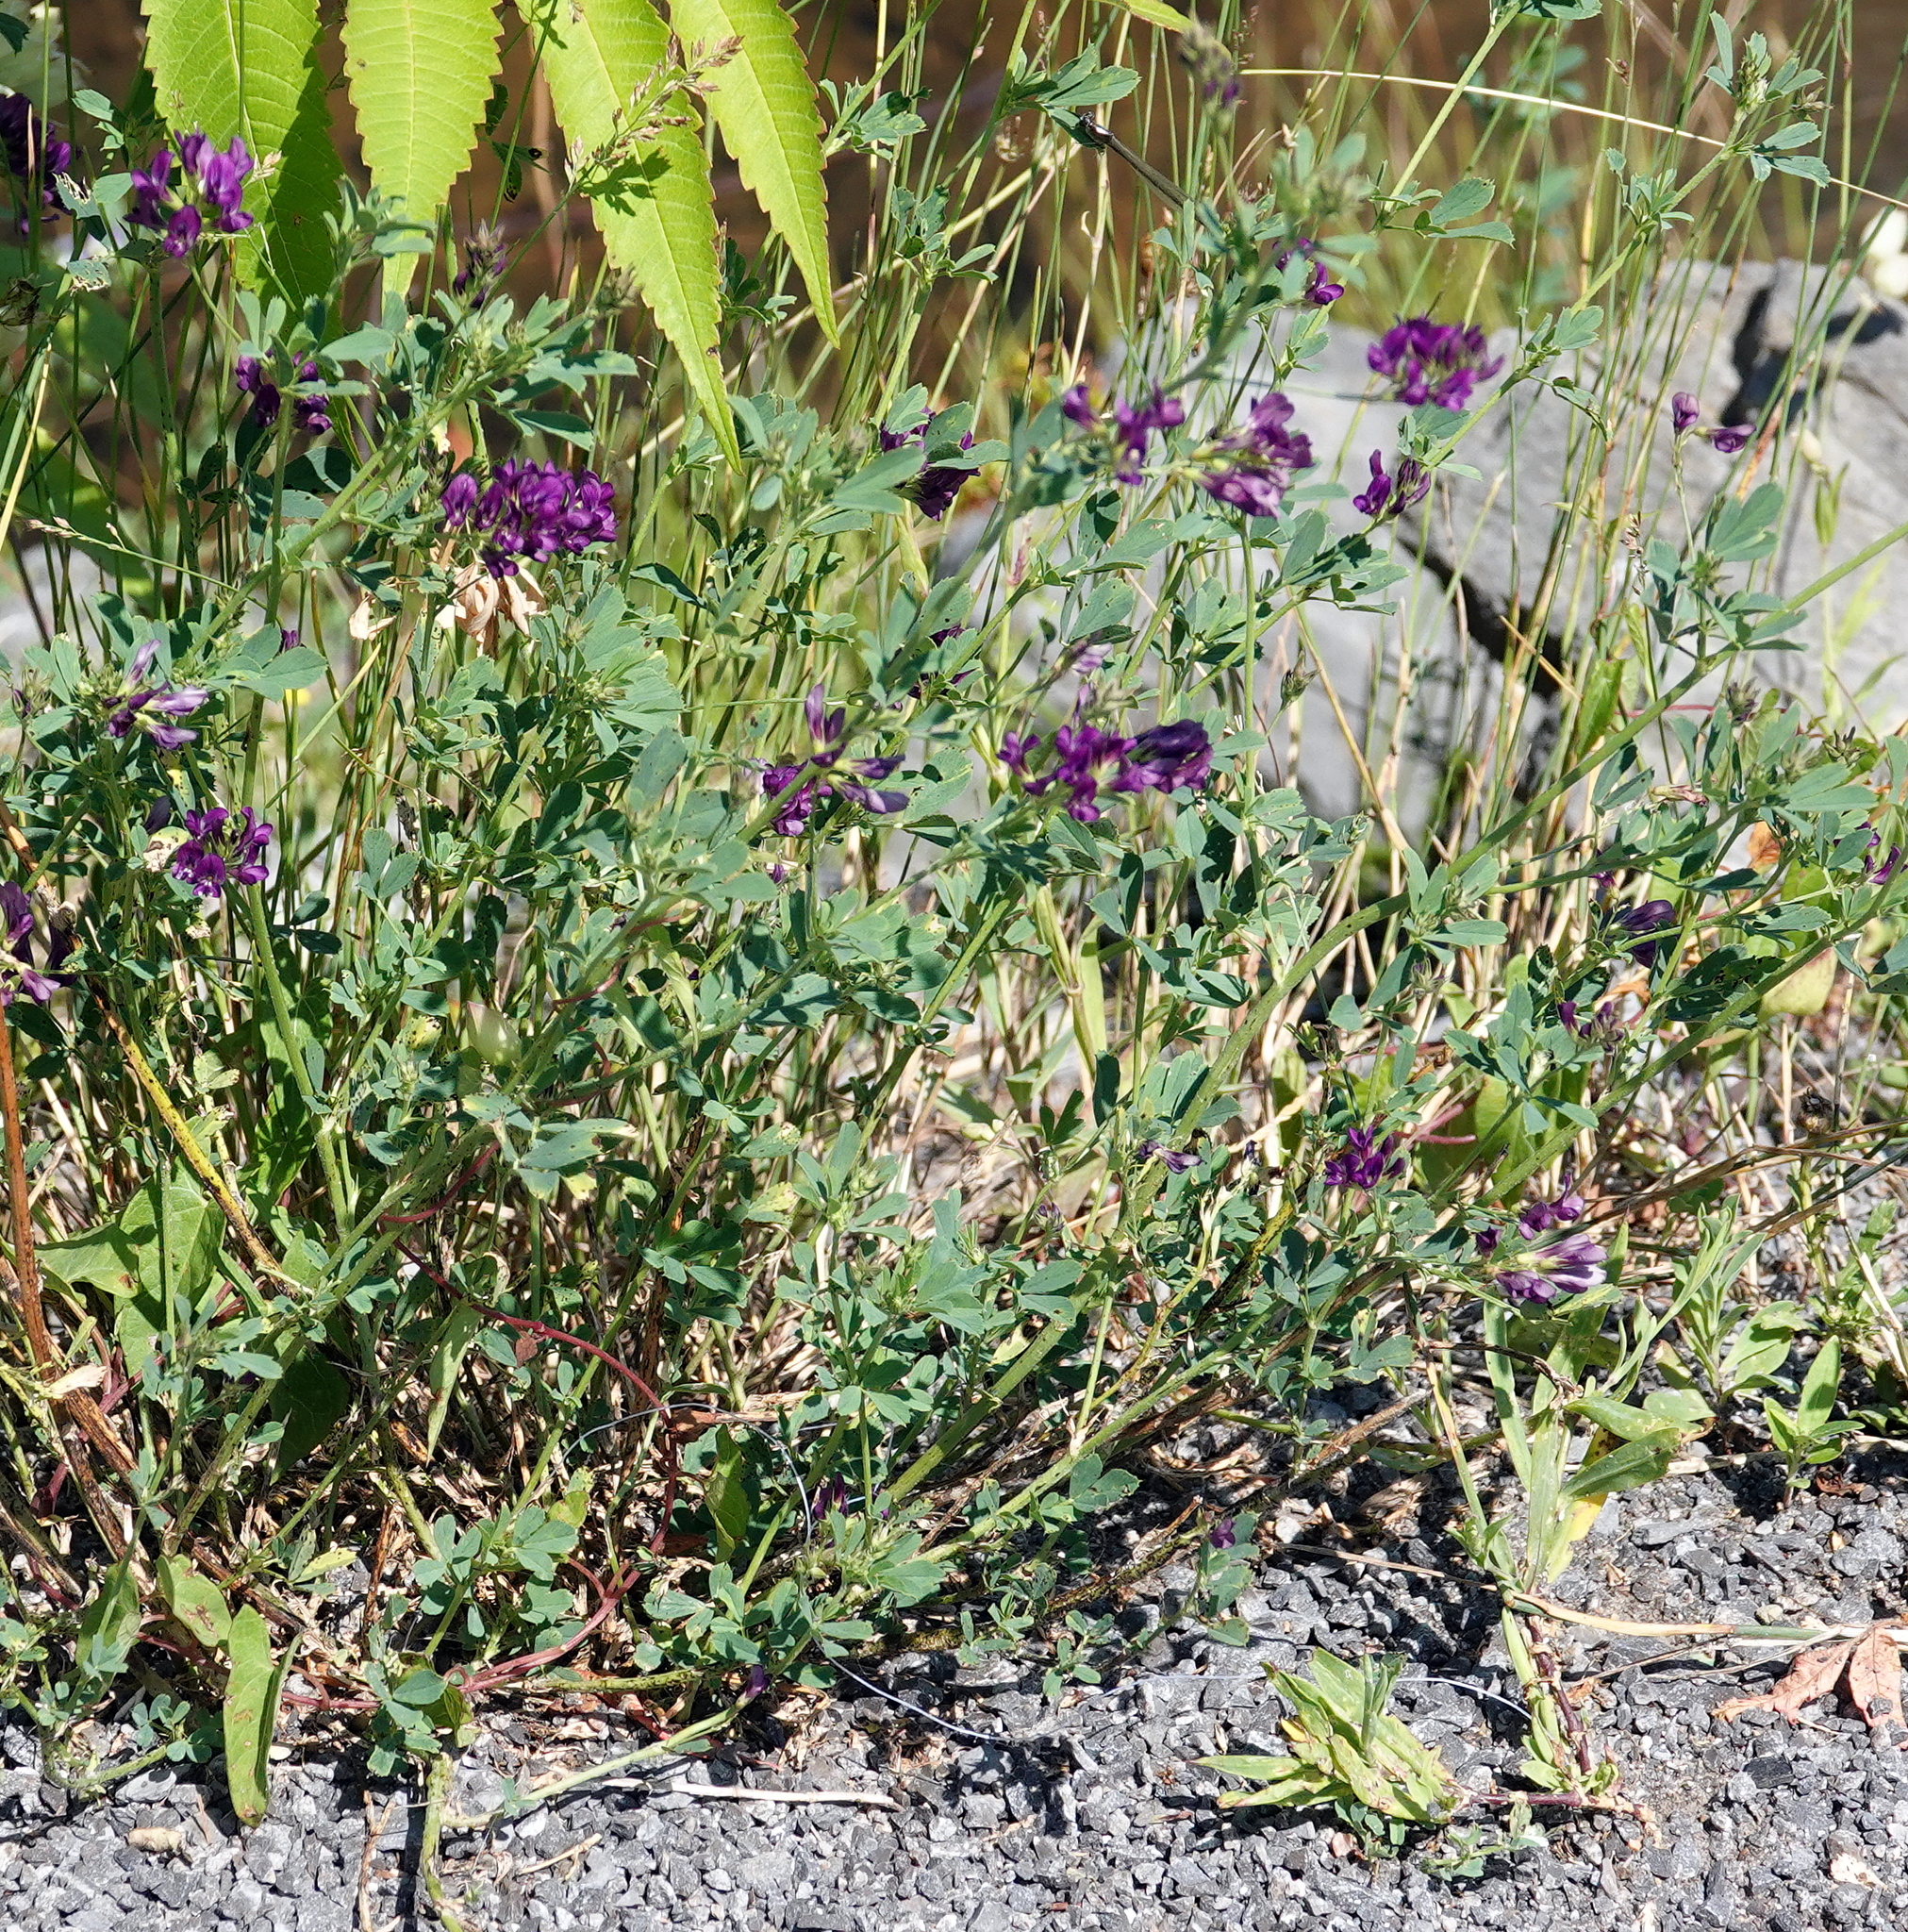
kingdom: Plantae
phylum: Tracheophyta
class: Magnoliopsida
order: Fabales
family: Fabaceae
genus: Medicago
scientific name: Medicago sativa
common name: Alfalfa
